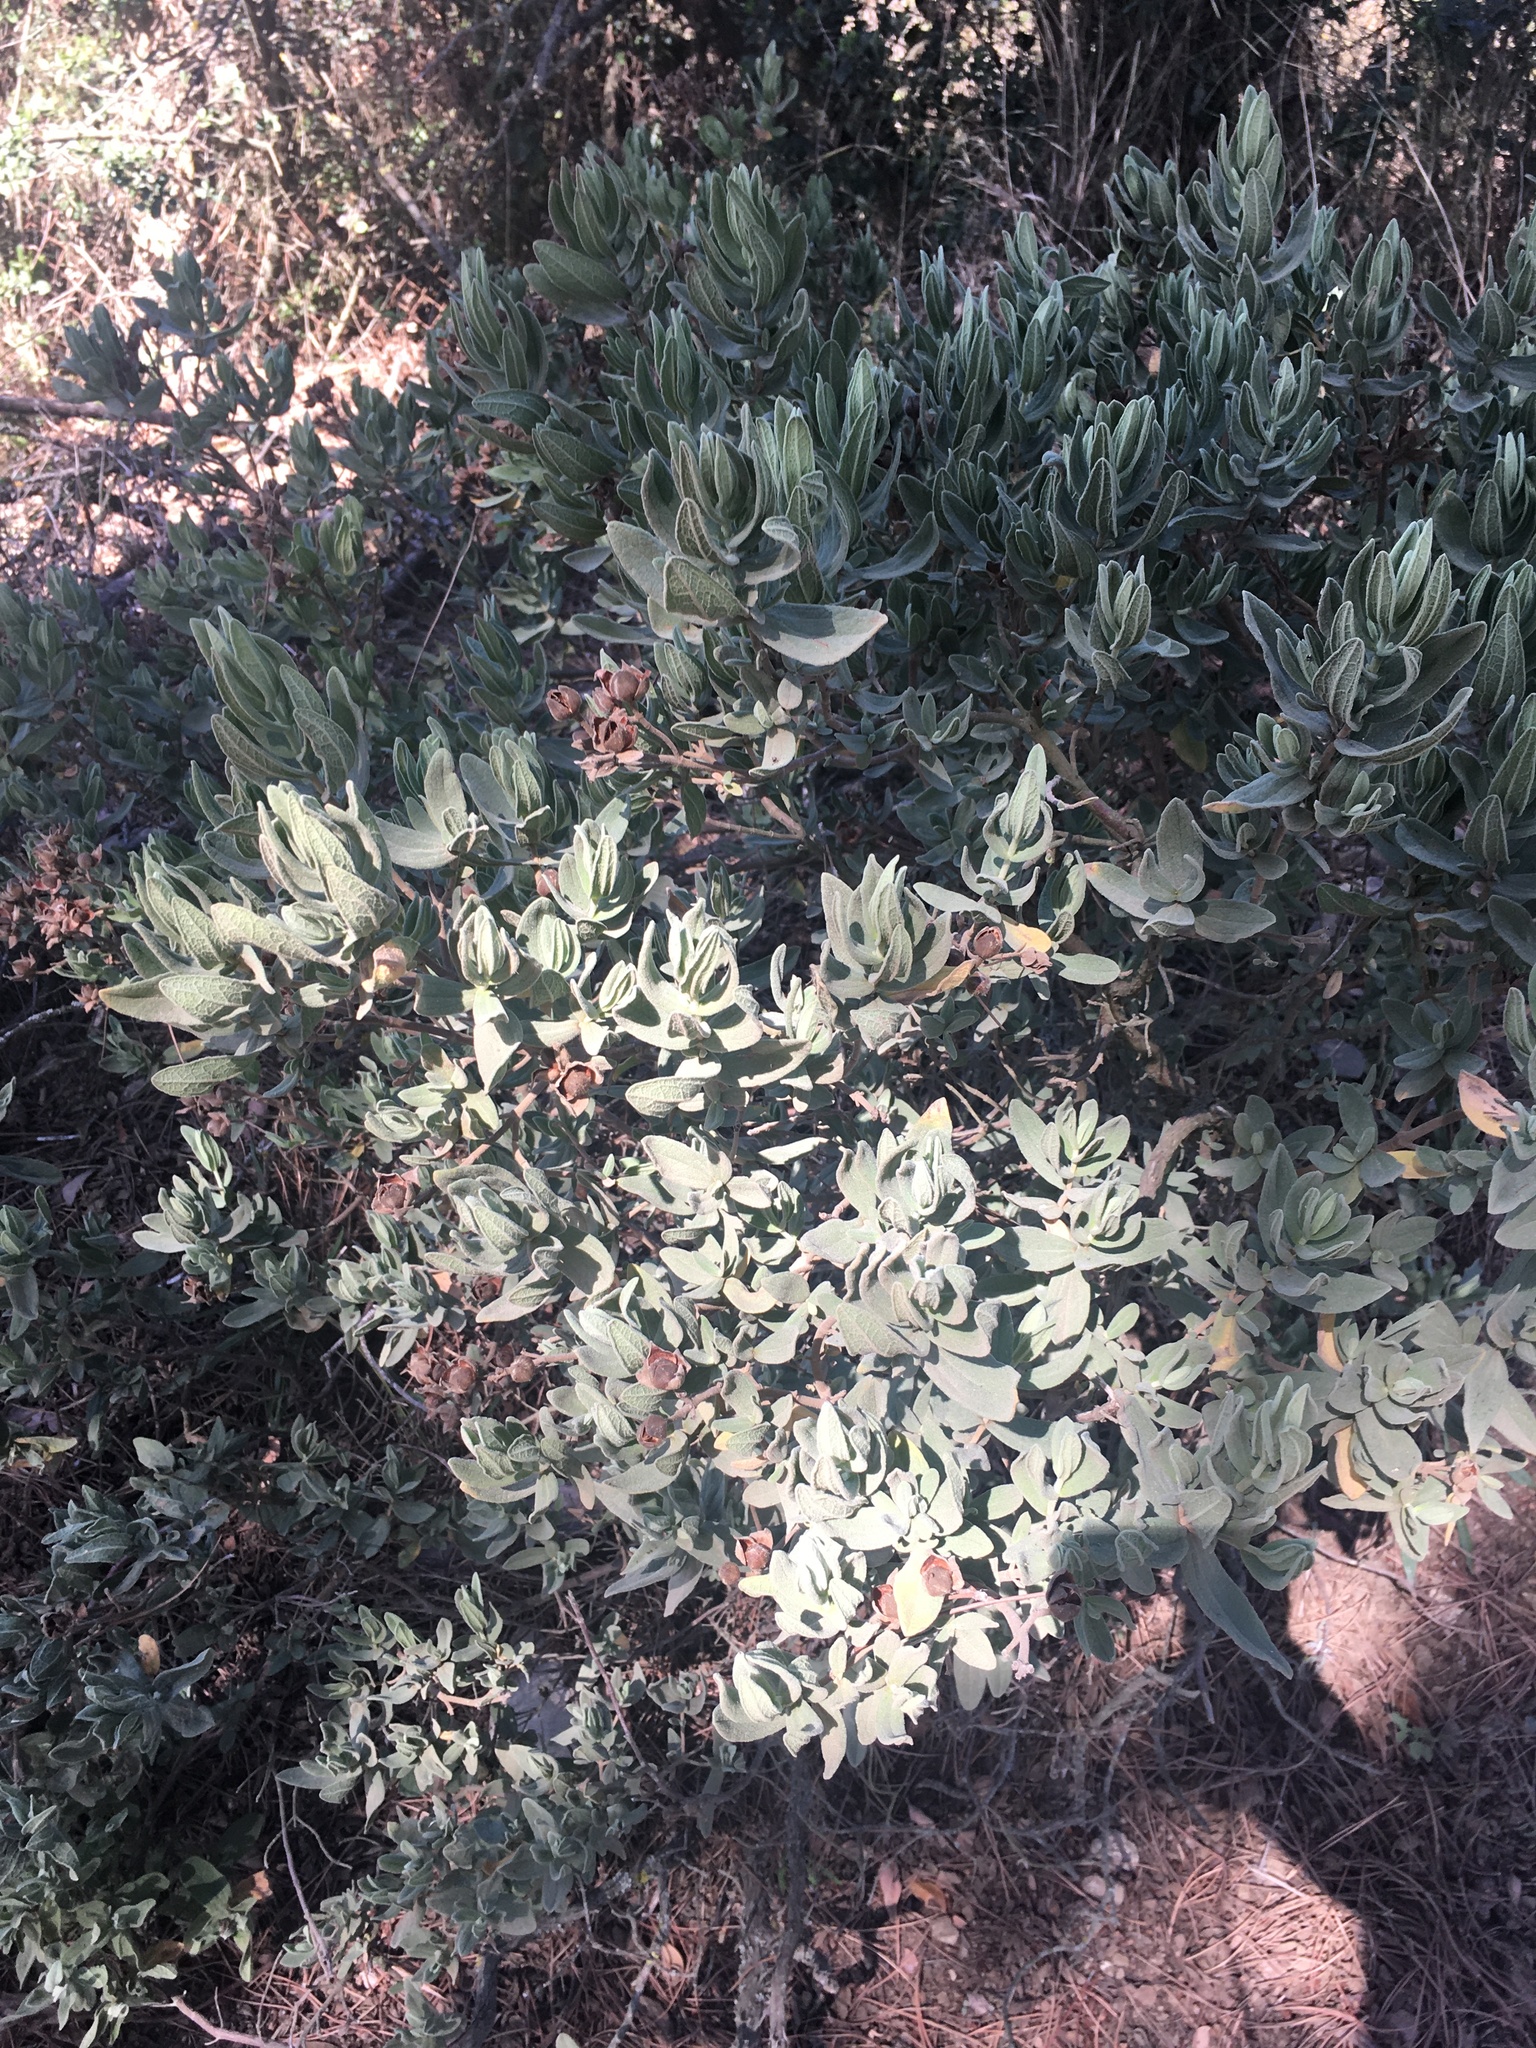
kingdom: Plantae
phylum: Tracheophyta
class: Magnoliopsida
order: Malvales
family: Cistaceae
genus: Cistus
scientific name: Cistus albidus
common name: White-leaf rock-rose
